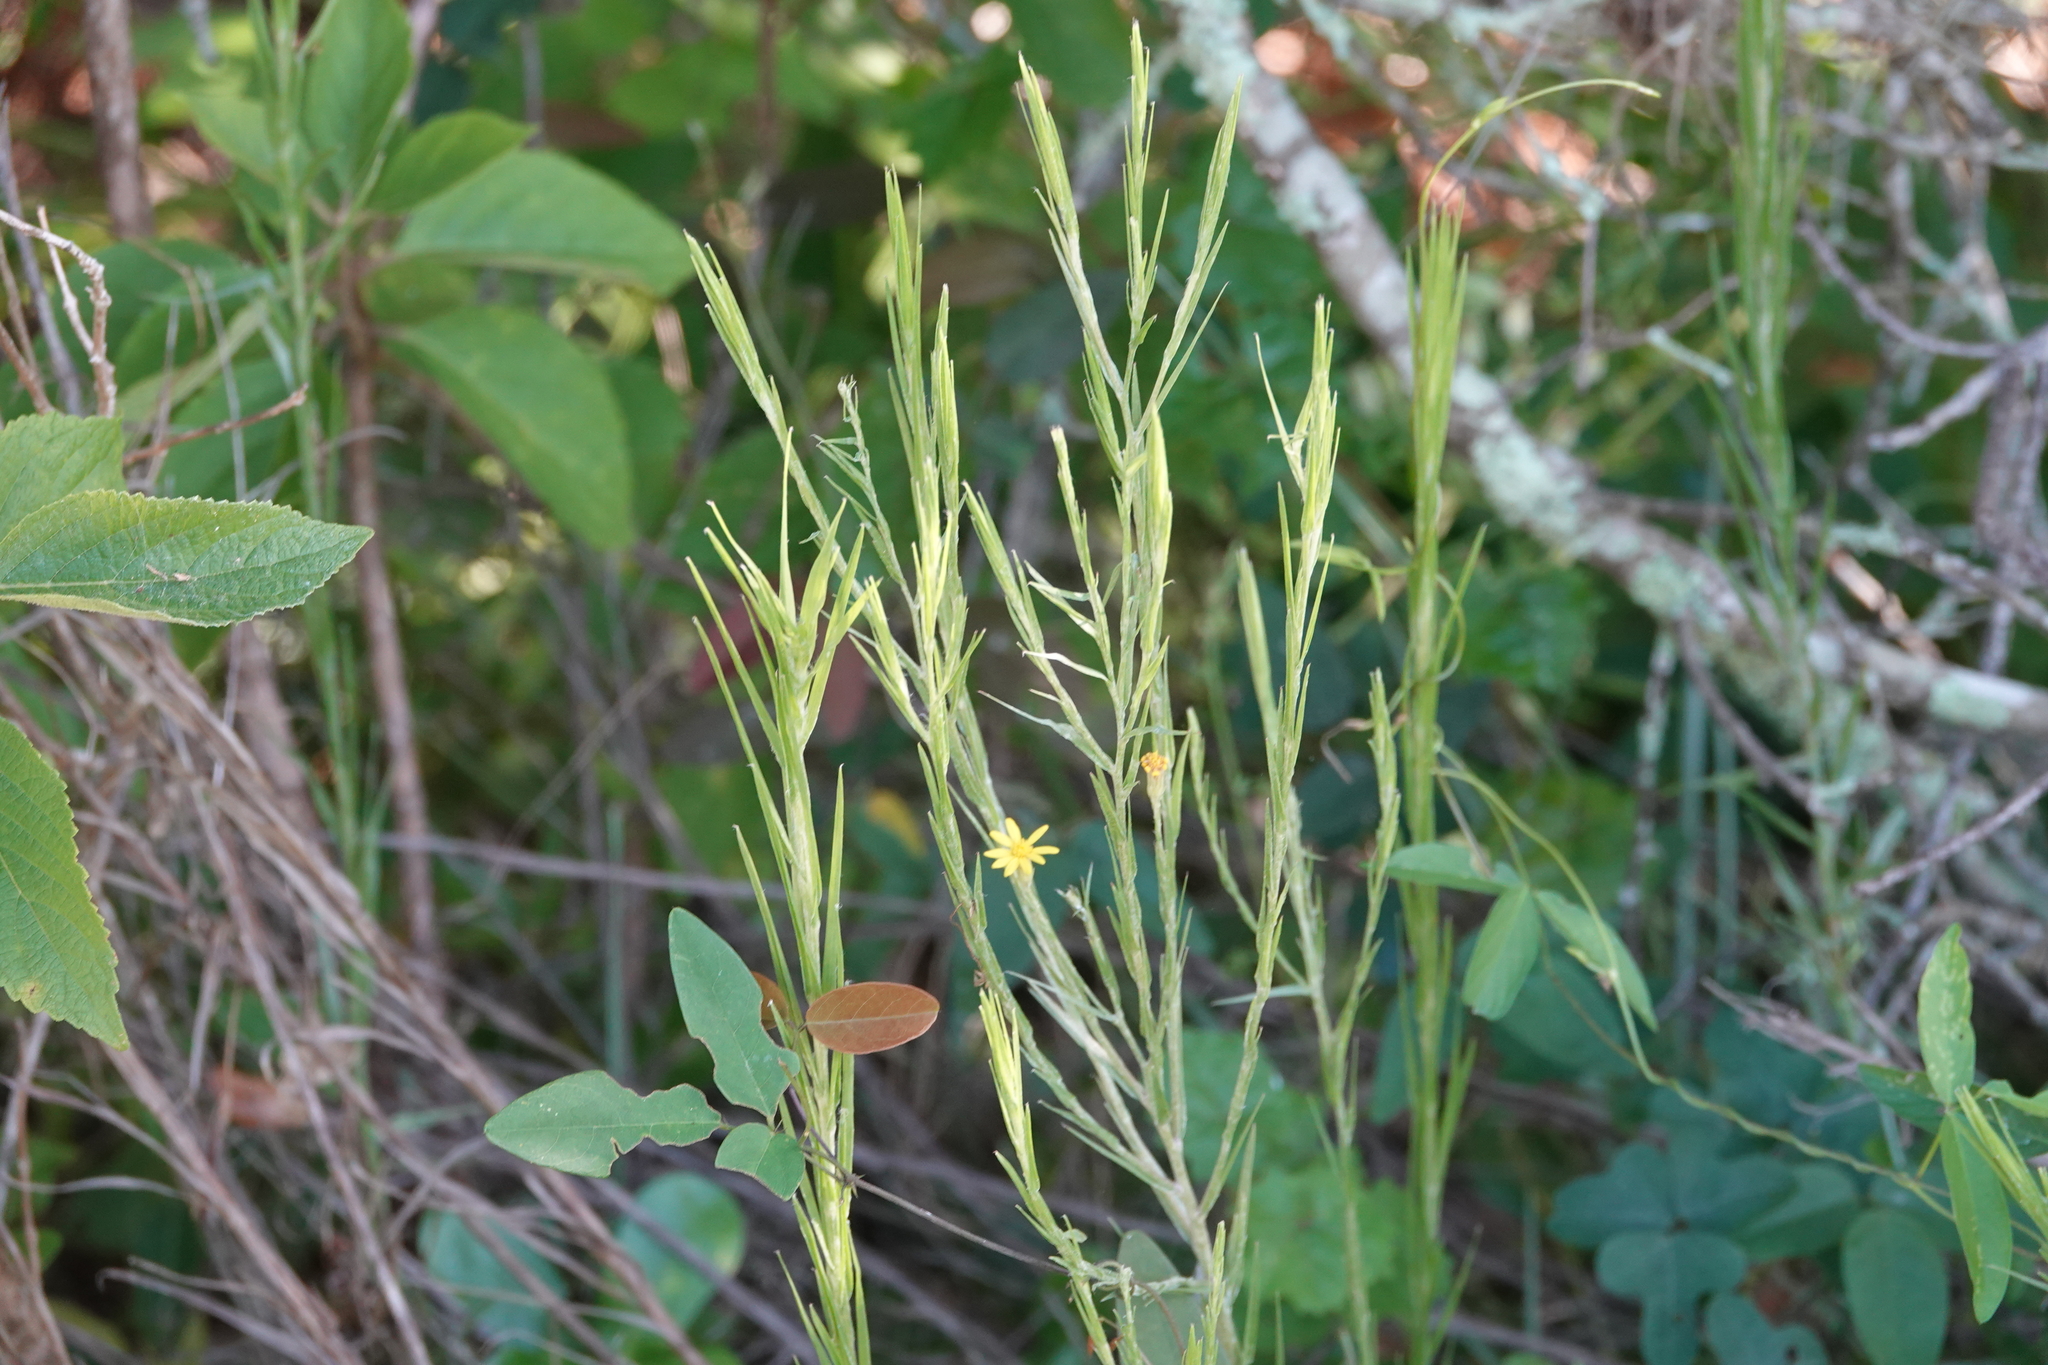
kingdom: Plantae
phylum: Tracheophyta
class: Magnoliopsida
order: Asterales
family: Asteraceae
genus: Pityopsis
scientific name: Pityopsis graminifolia
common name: Grass-leaf golden-aster
